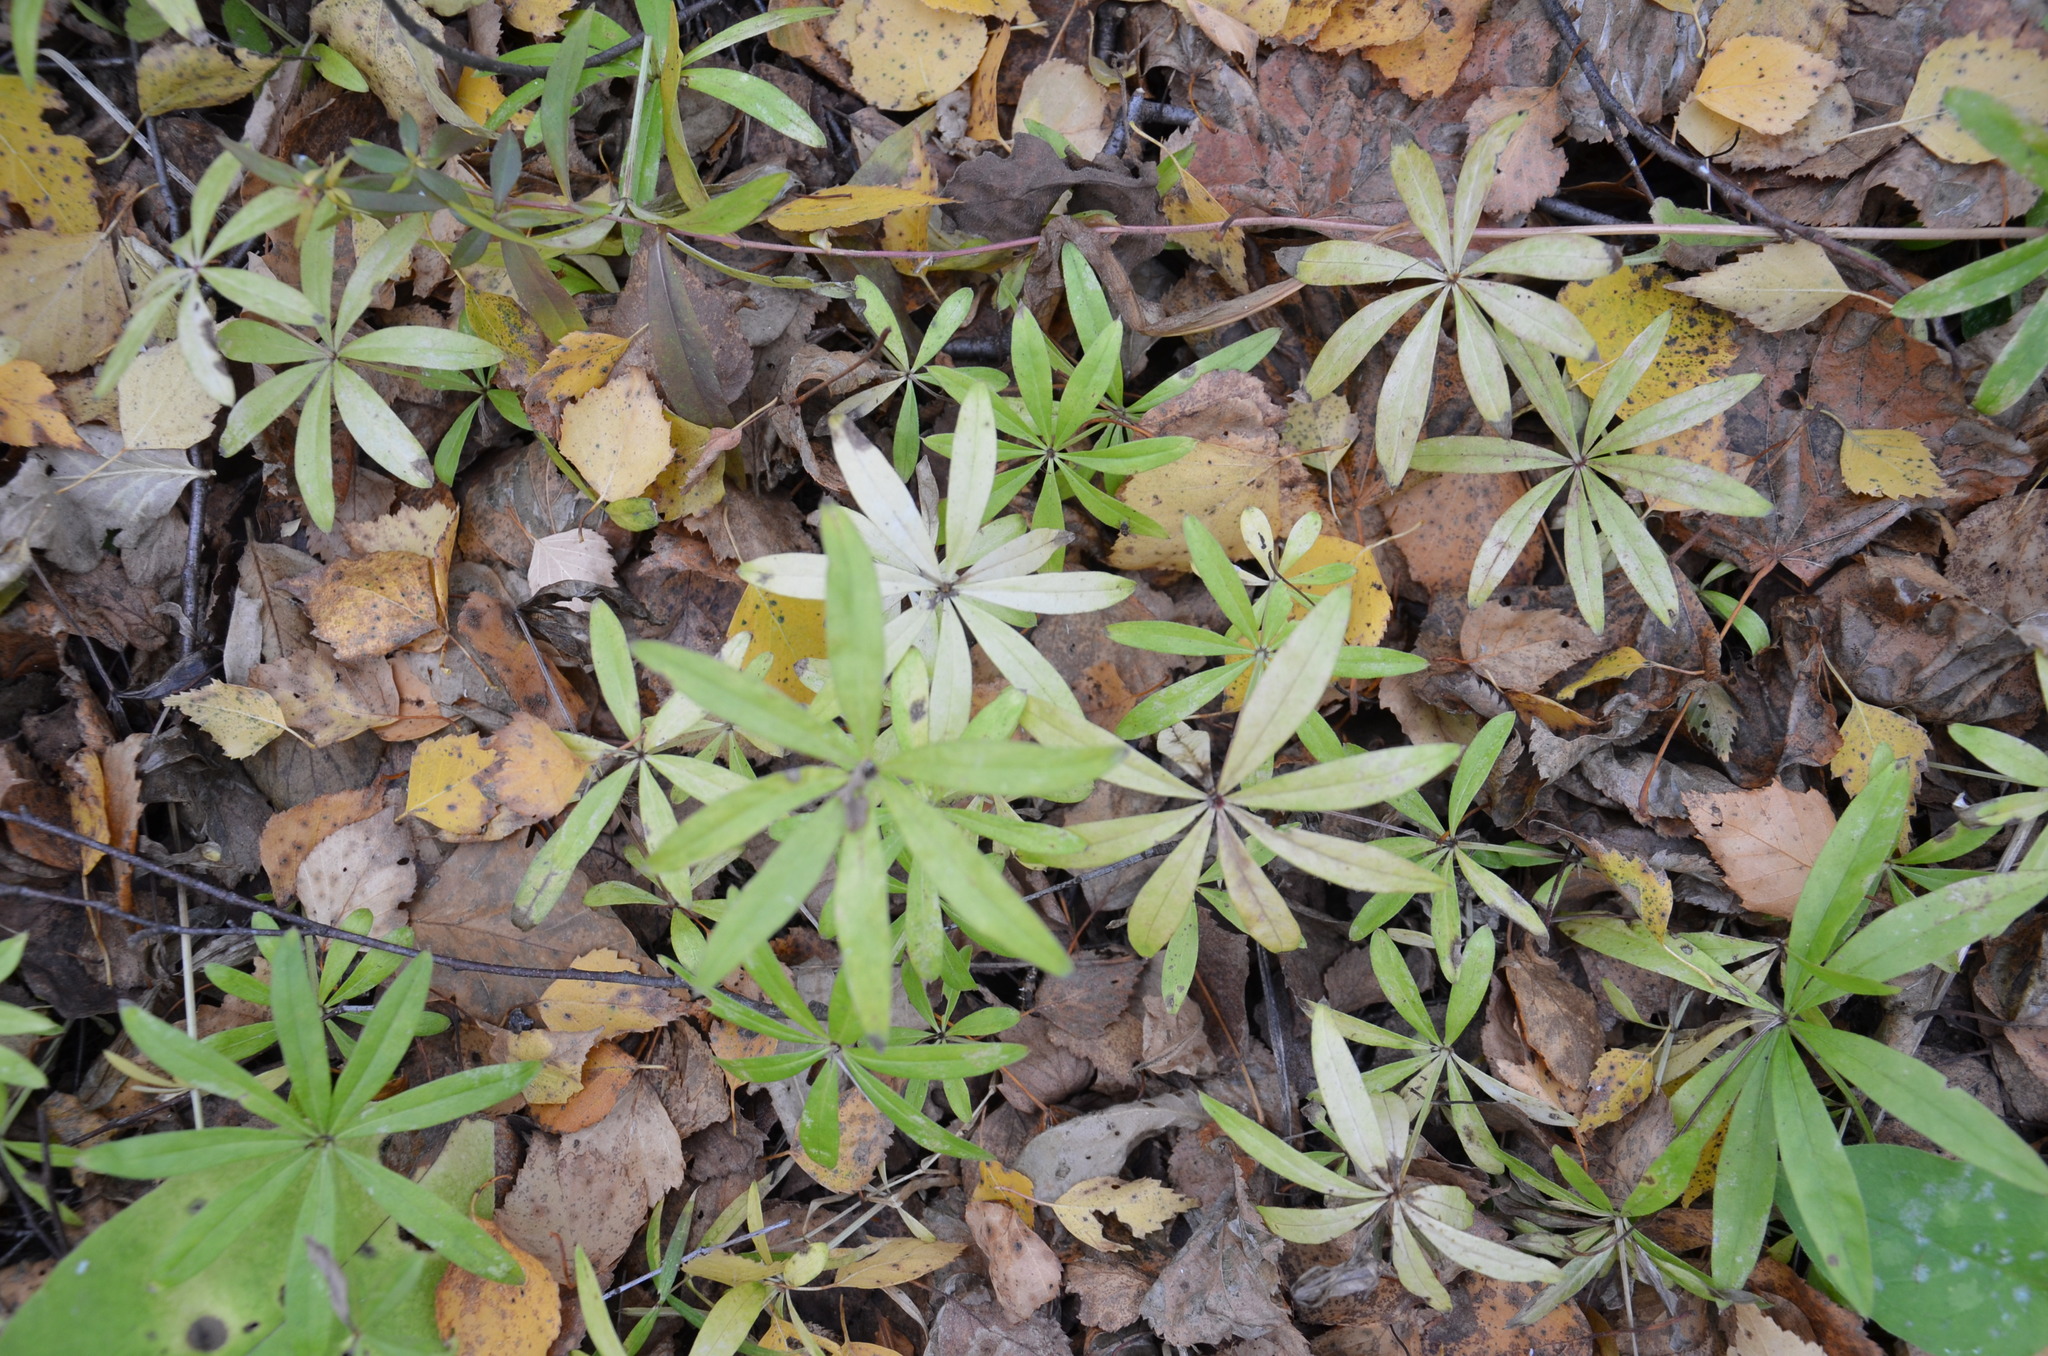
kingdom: Plantae
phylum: Tracheophyta
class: Magnoliopsida
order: Gentianales
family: Rubiaceae
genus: Galium
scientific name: Galium odoratum
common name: Sweet woodruff
